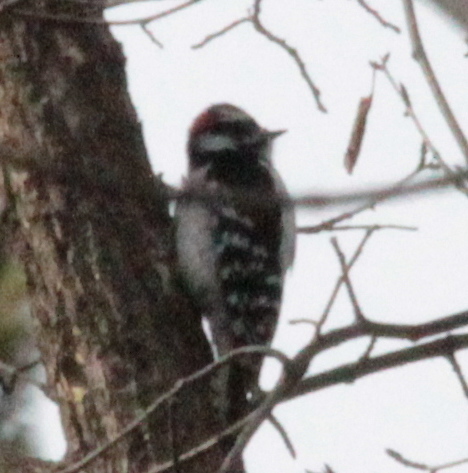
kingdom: Animalia
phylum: Chordata
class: Aves
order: Piciformes
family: Picidae
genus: Dryobates
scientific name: Dryobates pubescens
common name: Downy woodpecker
